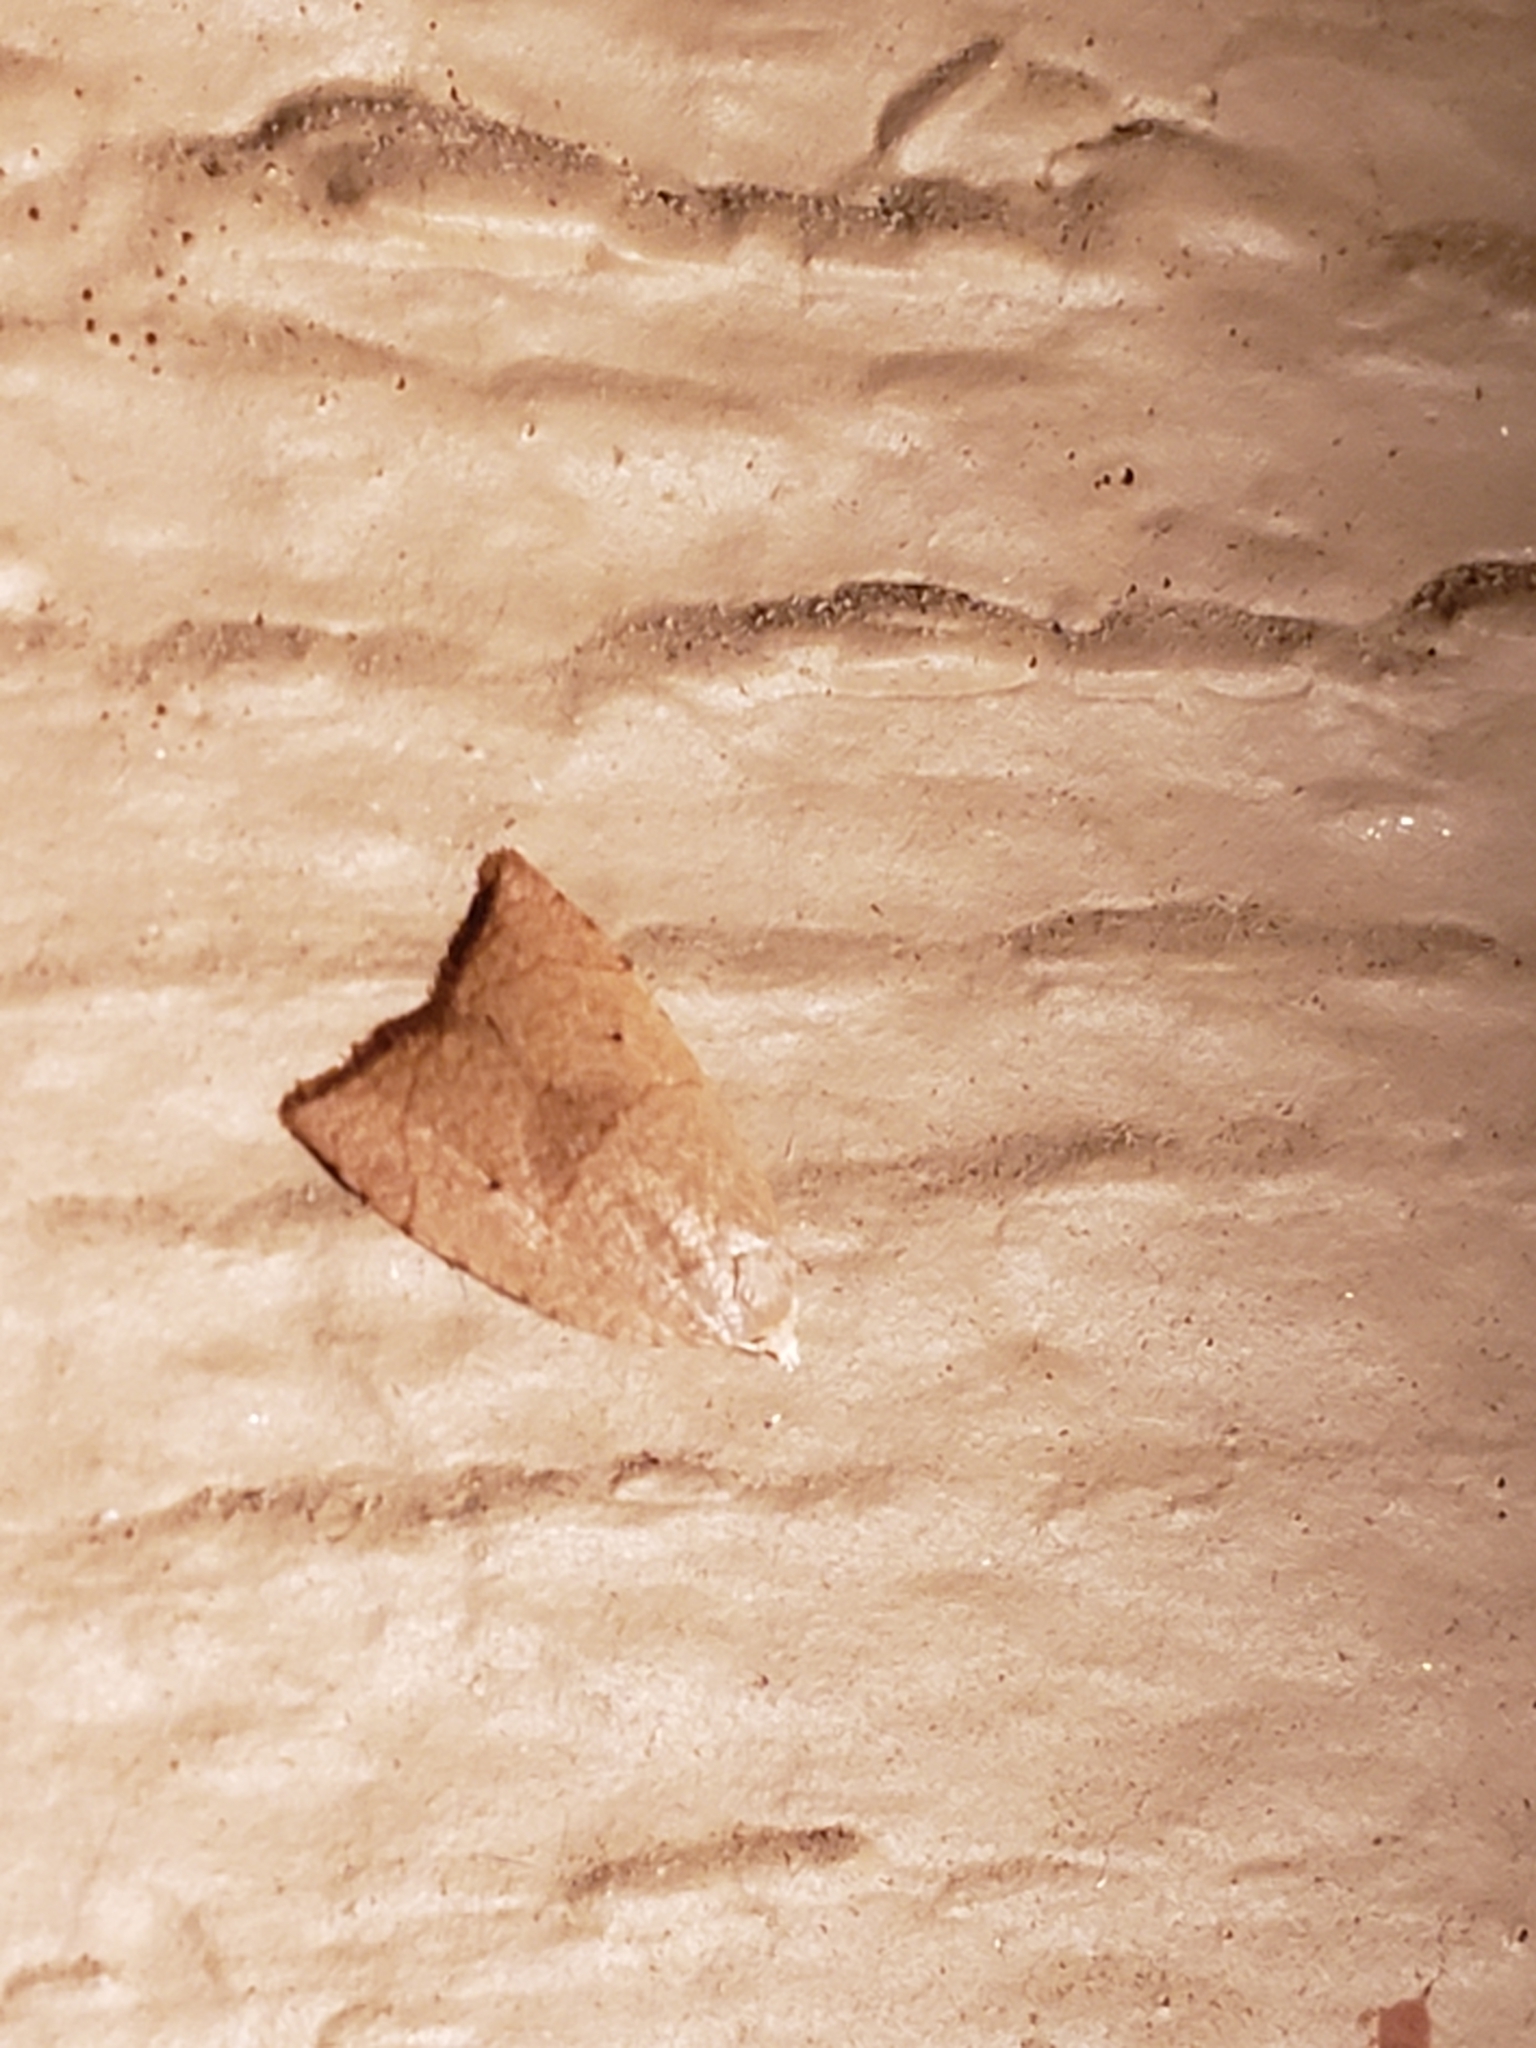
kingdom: Animalia
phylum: Arthropoda
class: Insecta
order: Lepidoptera
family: Tortricidae
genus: Coelostathma
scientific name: Coelostathma discopunctana
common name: Batman moth
